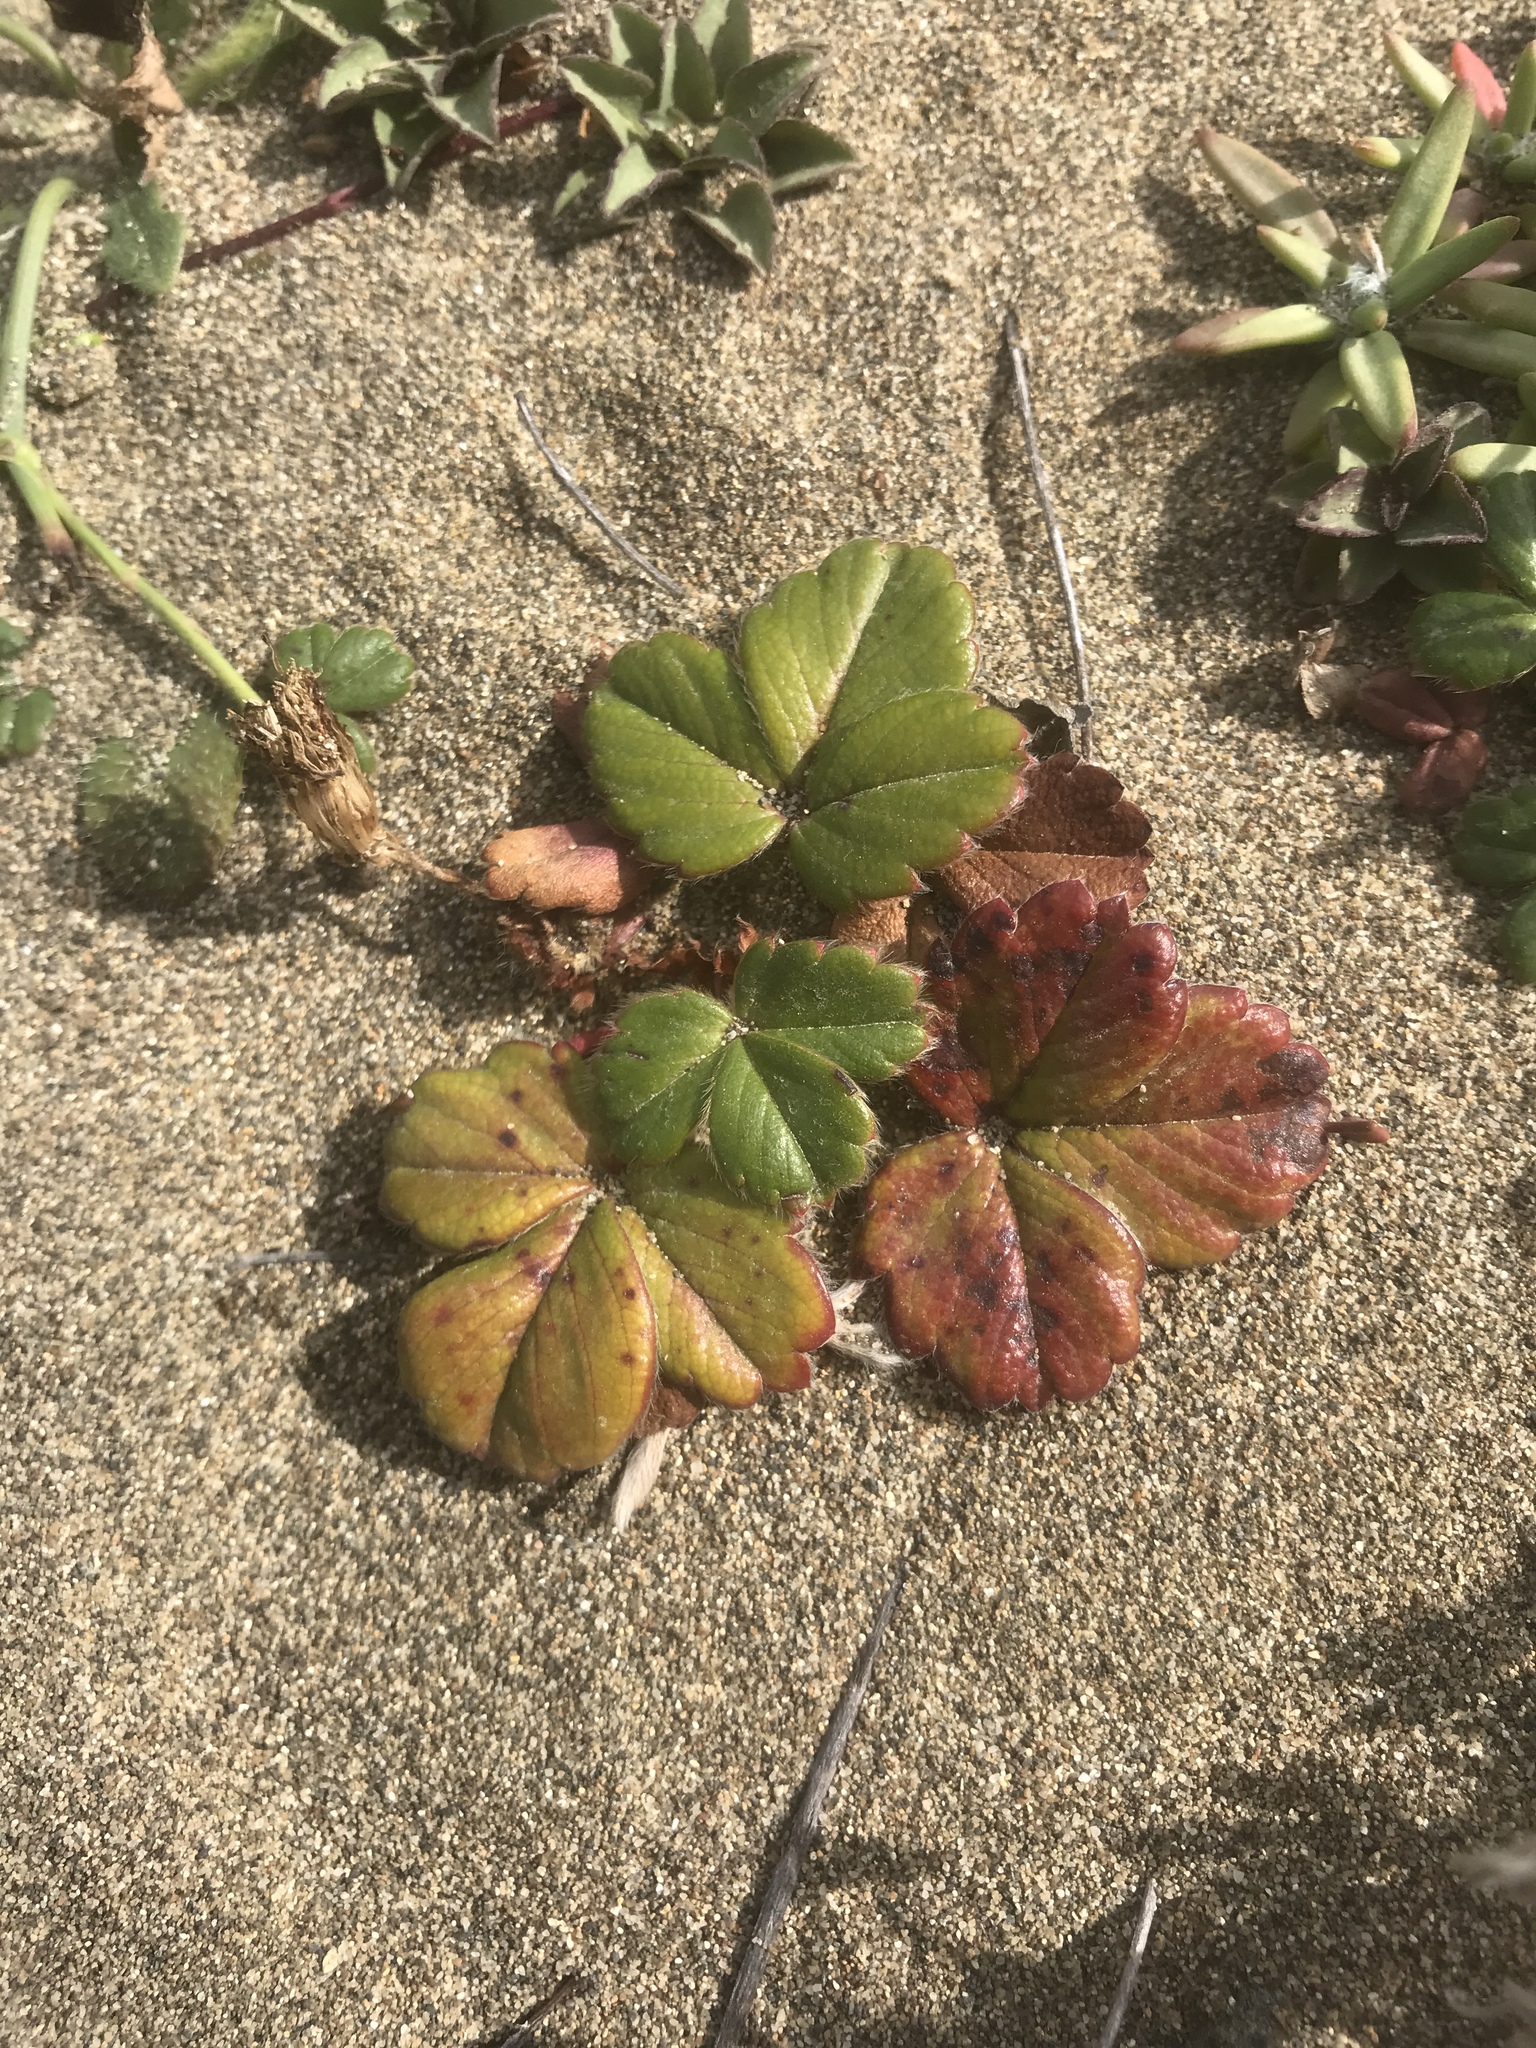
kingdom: Plantae
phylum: Tracheophyta
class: Magnoliopsida
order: Rosales
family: Rosaceae
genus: Fragaria
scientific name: Fragaria chiloensis
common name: Beach strawberry
